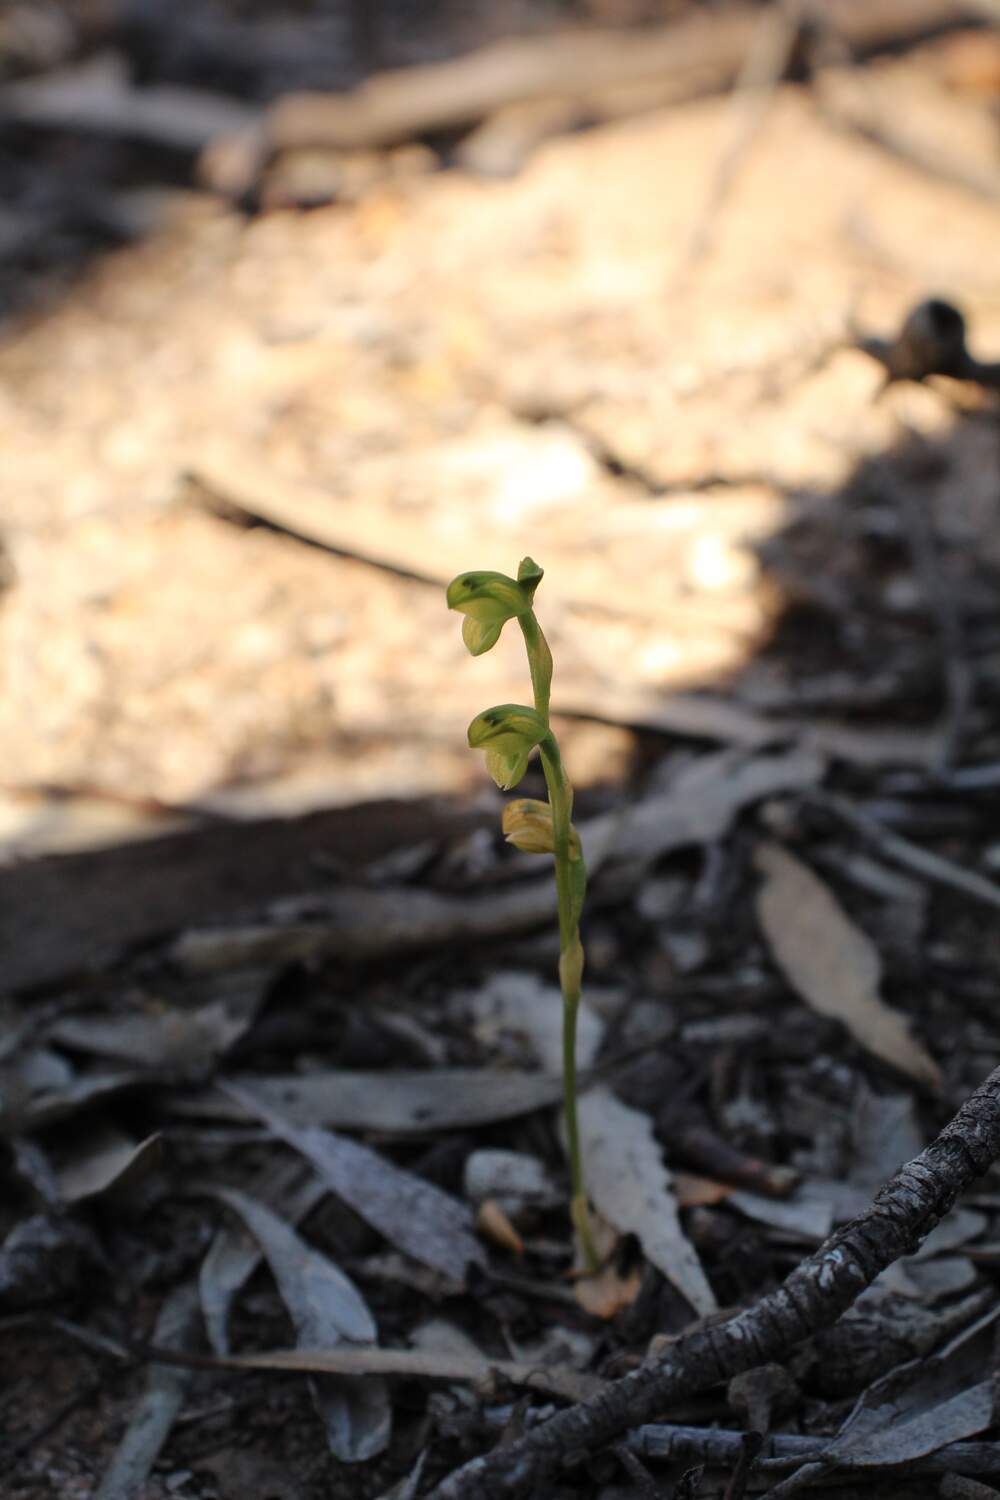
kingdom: Plantae
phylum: Tracheophyta
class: Liliopsida
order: Asparagales
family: Orchidaceae
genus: Pterostylis
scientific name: Pterostylis mutica
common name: Midget greenhood
